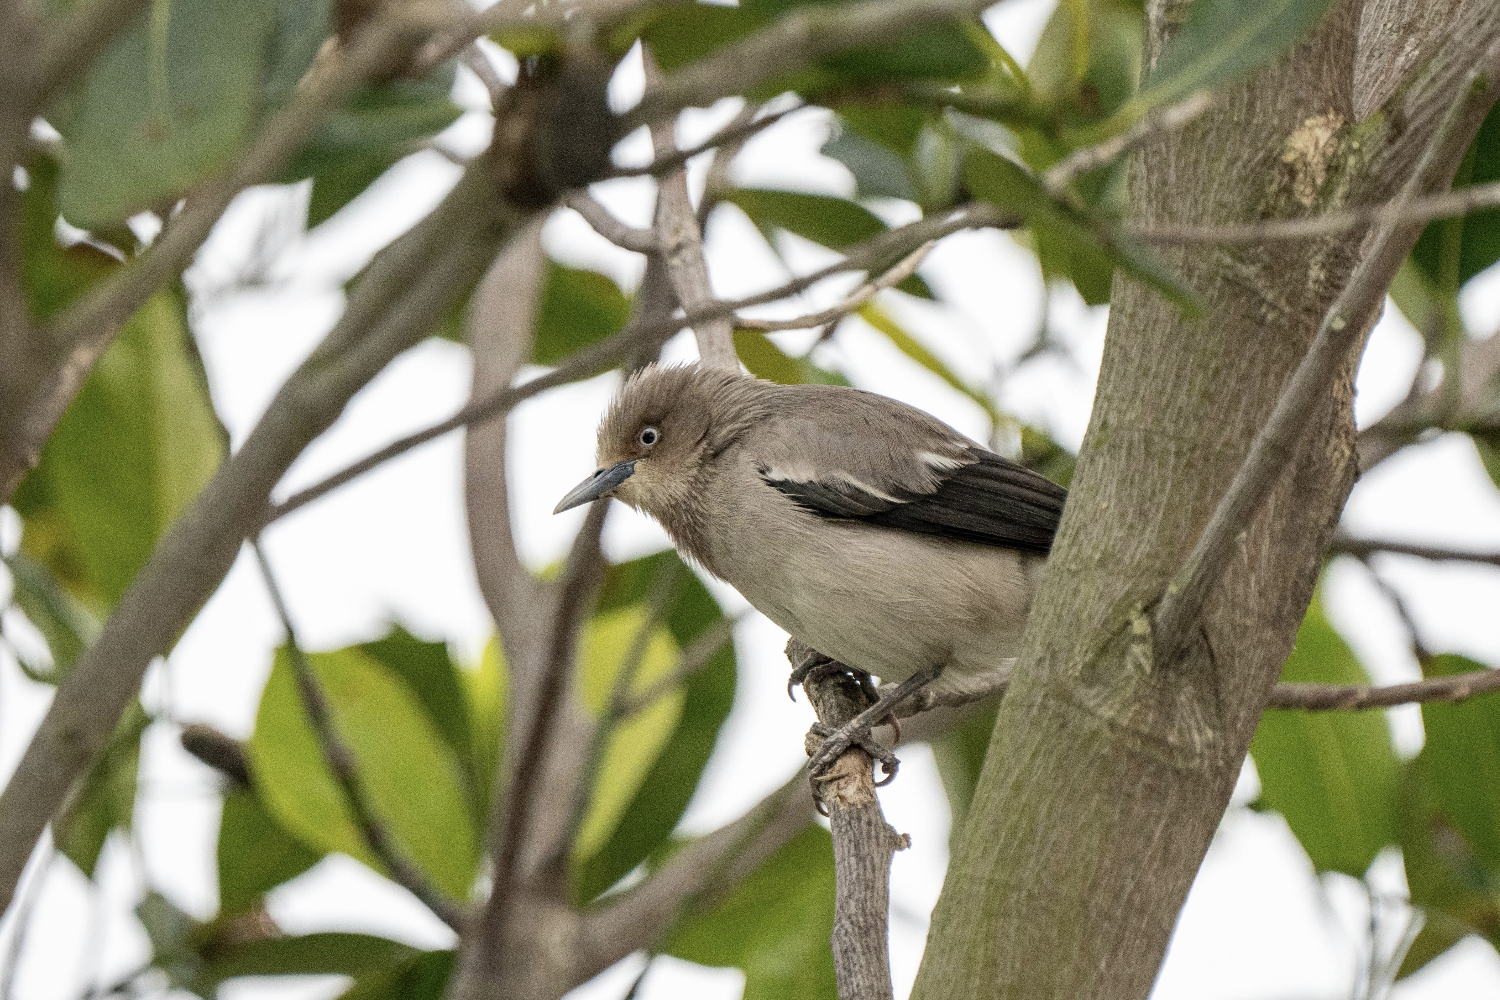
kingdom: Animalia
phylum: Chordata
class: Aves
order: Passeriformes
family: Sturnidae
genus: Sturnia
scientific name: Sturnia sinensis
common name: White-shouldered starling
